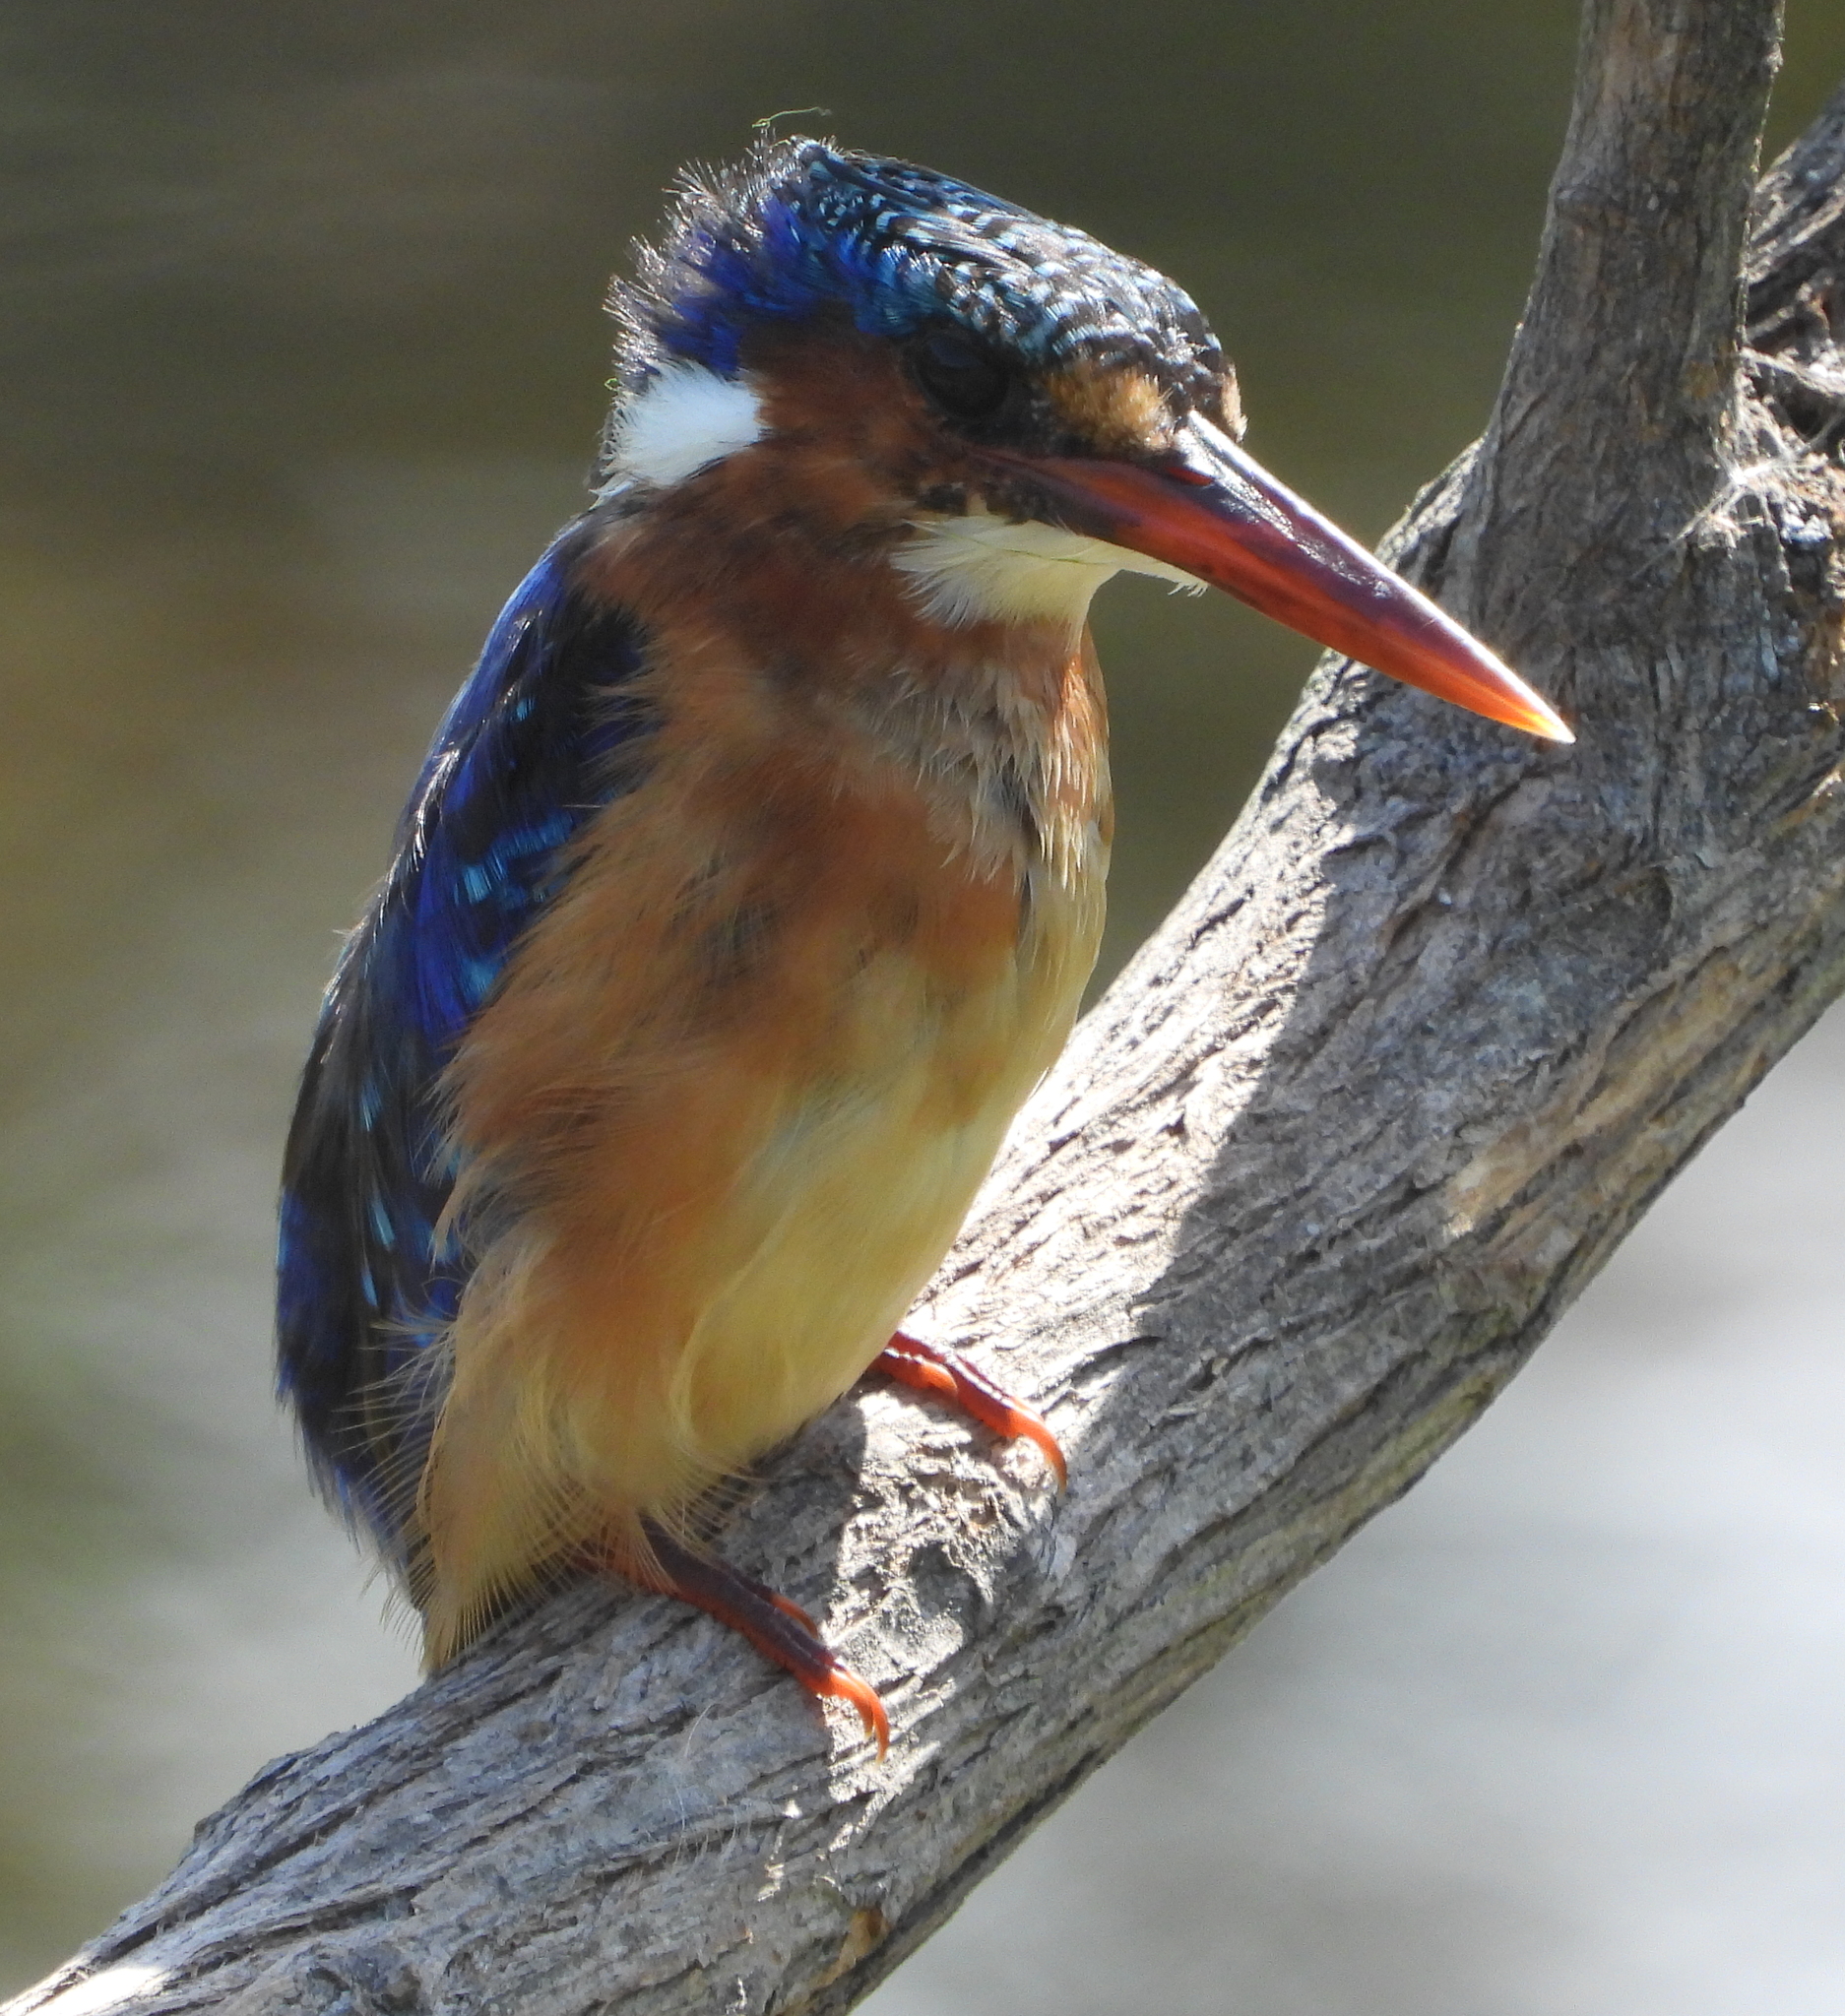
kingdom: Animalia
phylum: Chordata
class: Aves
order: Coraciiformes
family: Alcedinidae
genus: Corythornis
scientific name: Corythornis cristatus
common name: Malachite kingfisher
